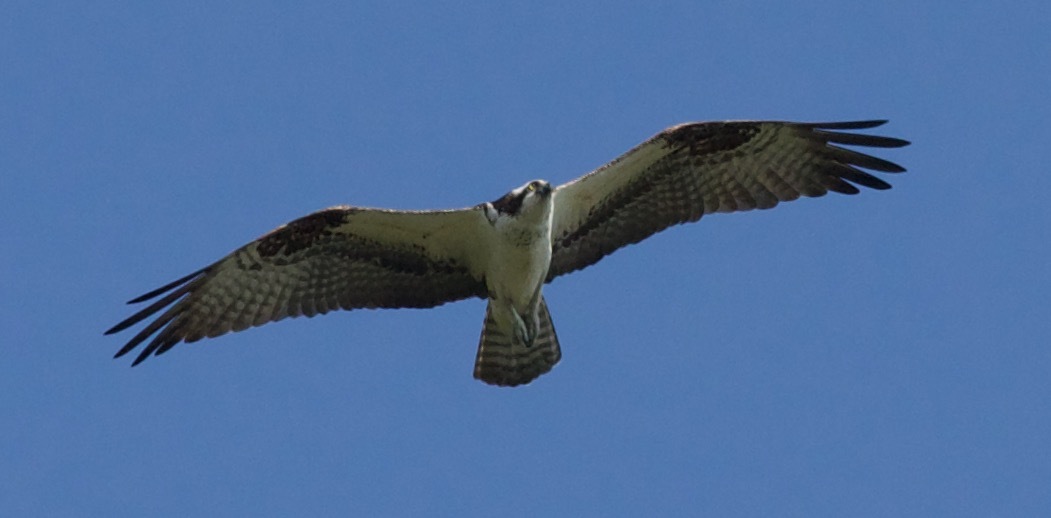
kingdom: Animalia
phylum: Chordata
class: Aves
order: Accipitriformes
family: Pandionidae
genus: Pandion
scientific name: Pandion haliaetus
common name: Osprey
